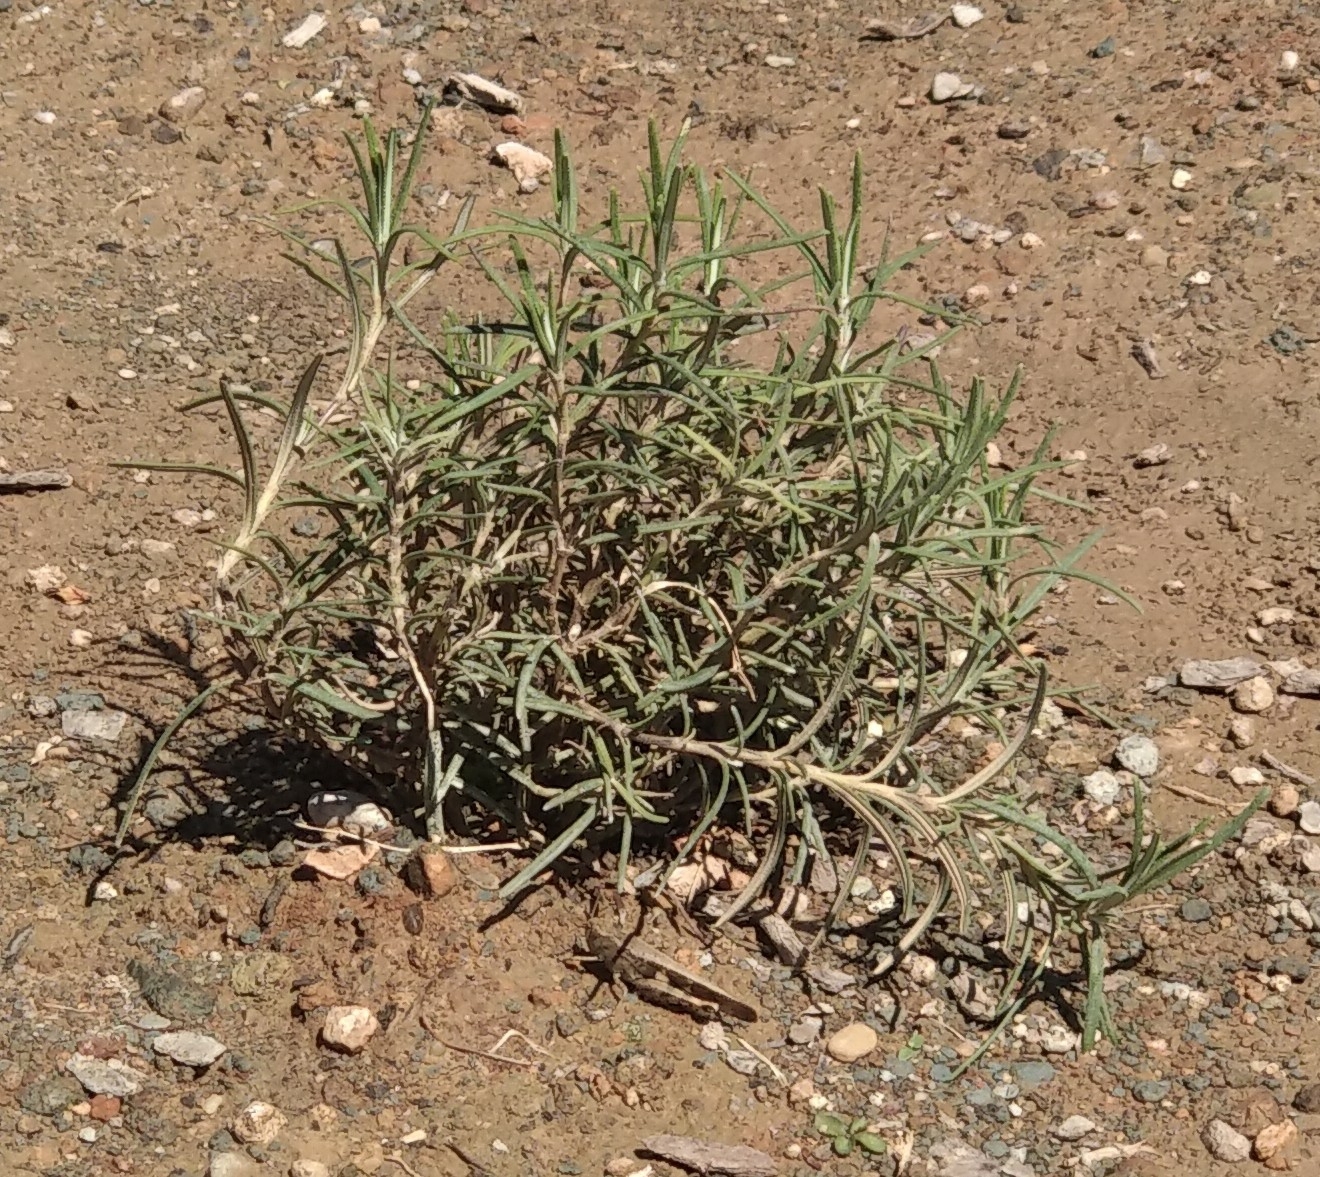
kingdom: Animalia
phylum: Arthropoda
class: Insecta
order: Orthoptera
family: Acrididae
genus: Aiolopus
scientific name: Aiolopus strepens
